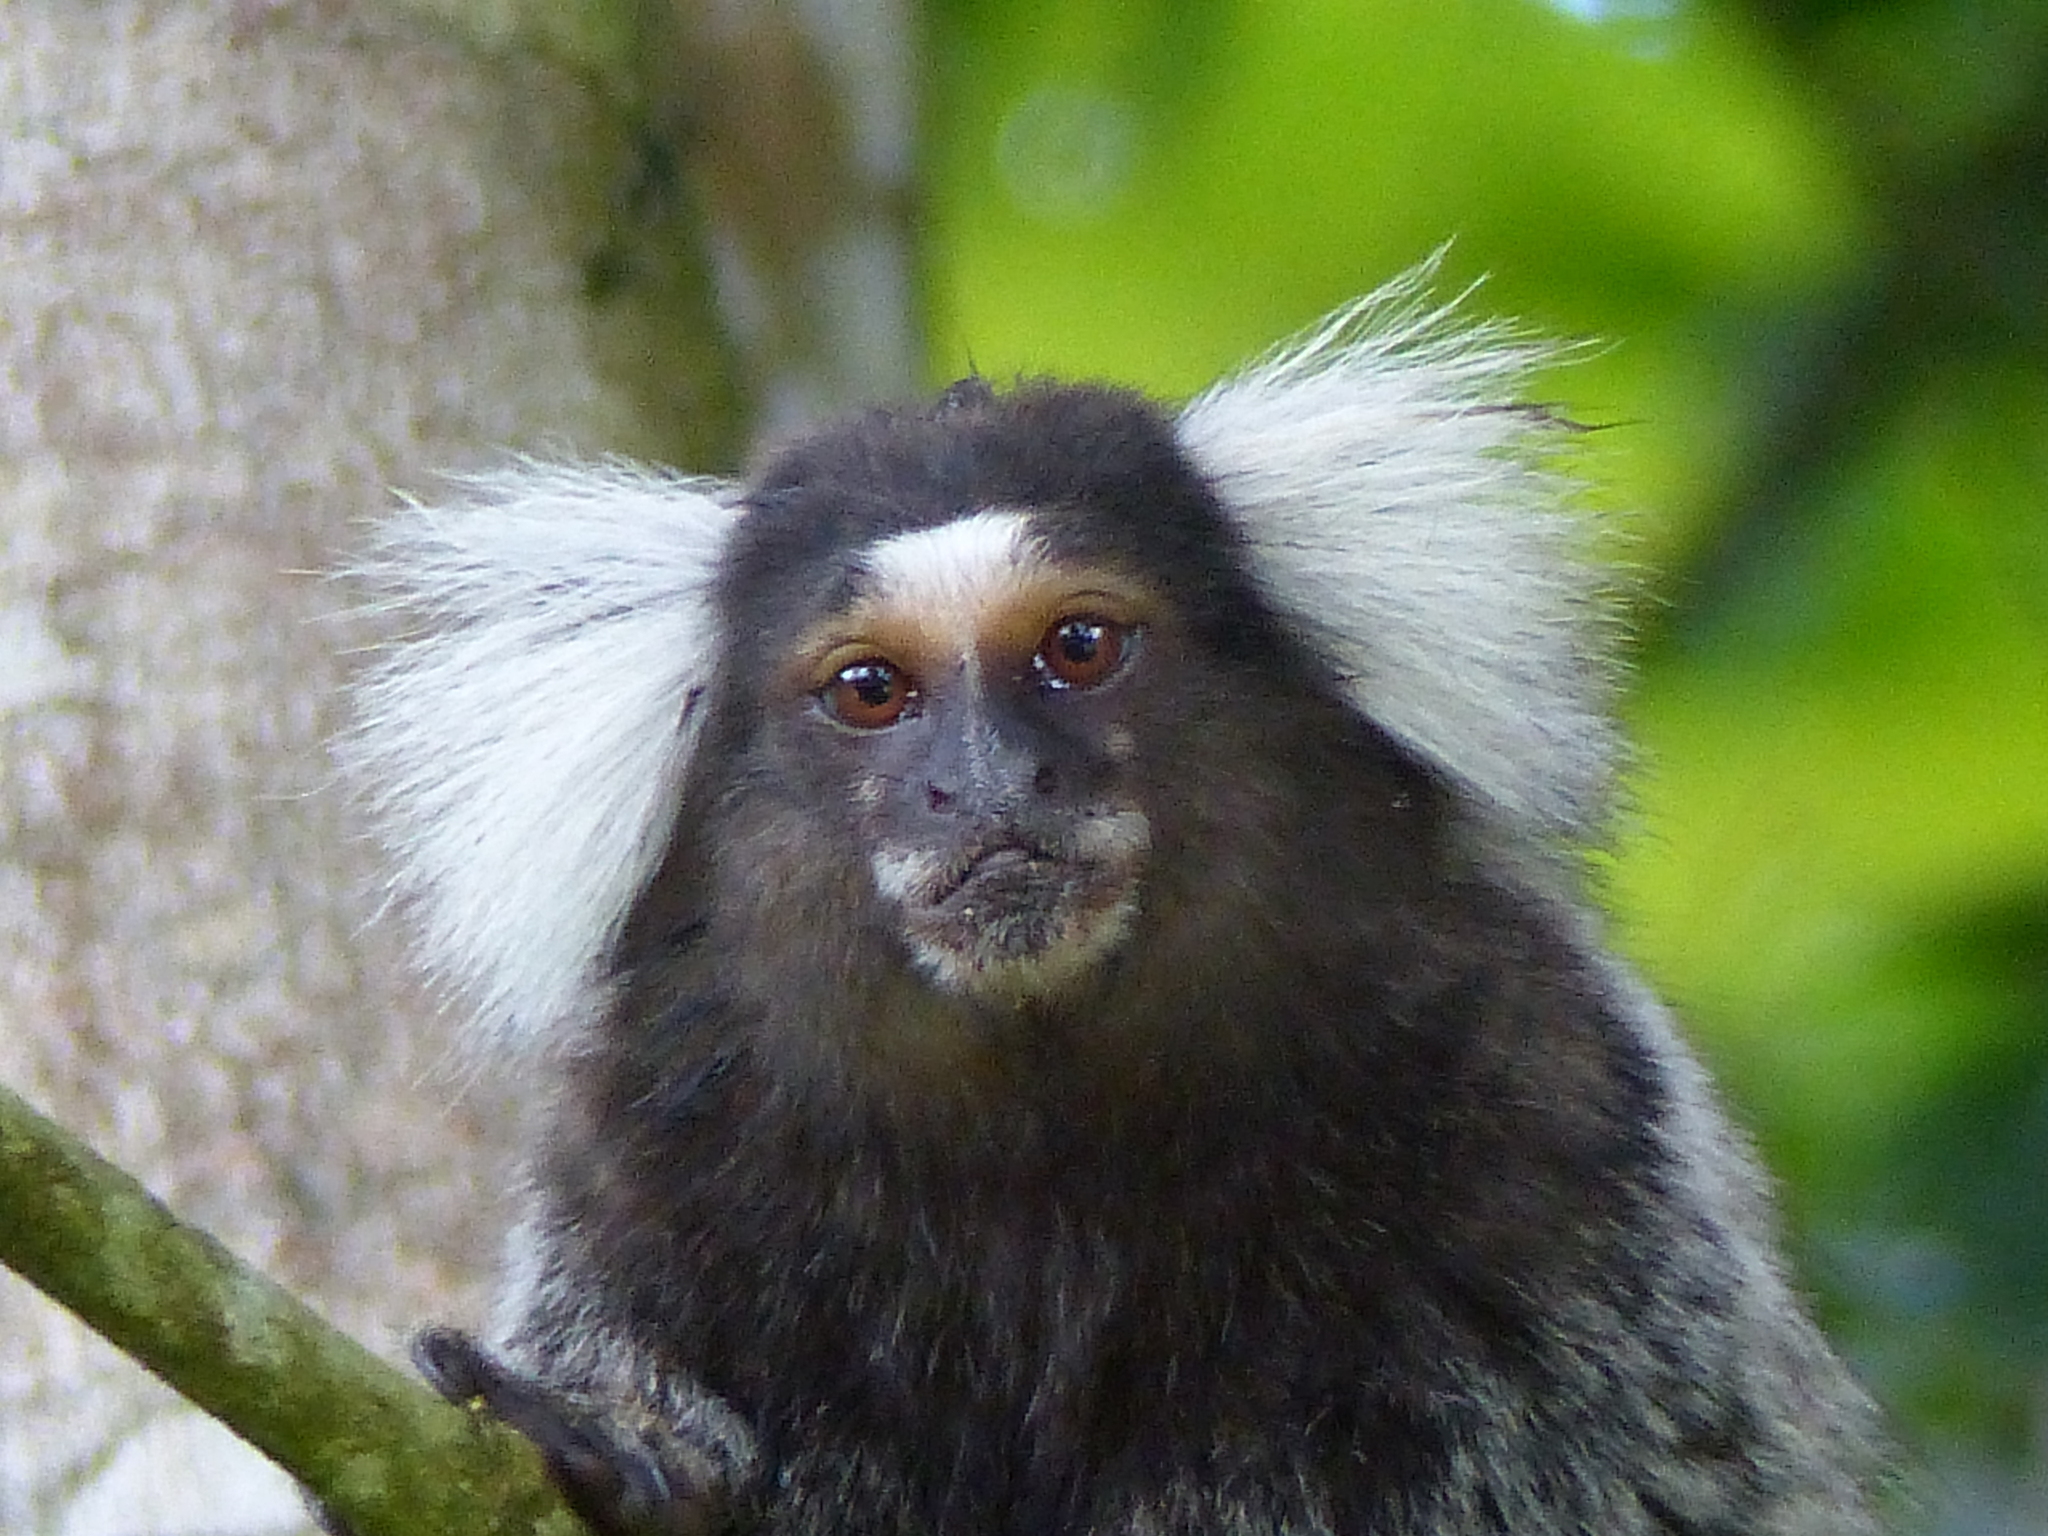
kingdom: Animalia
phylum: Chordata
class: Mammalia
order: Primates
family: Callitrichidae
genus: Callithrix
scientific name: Callithrix jacchus
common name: Common marmoset
